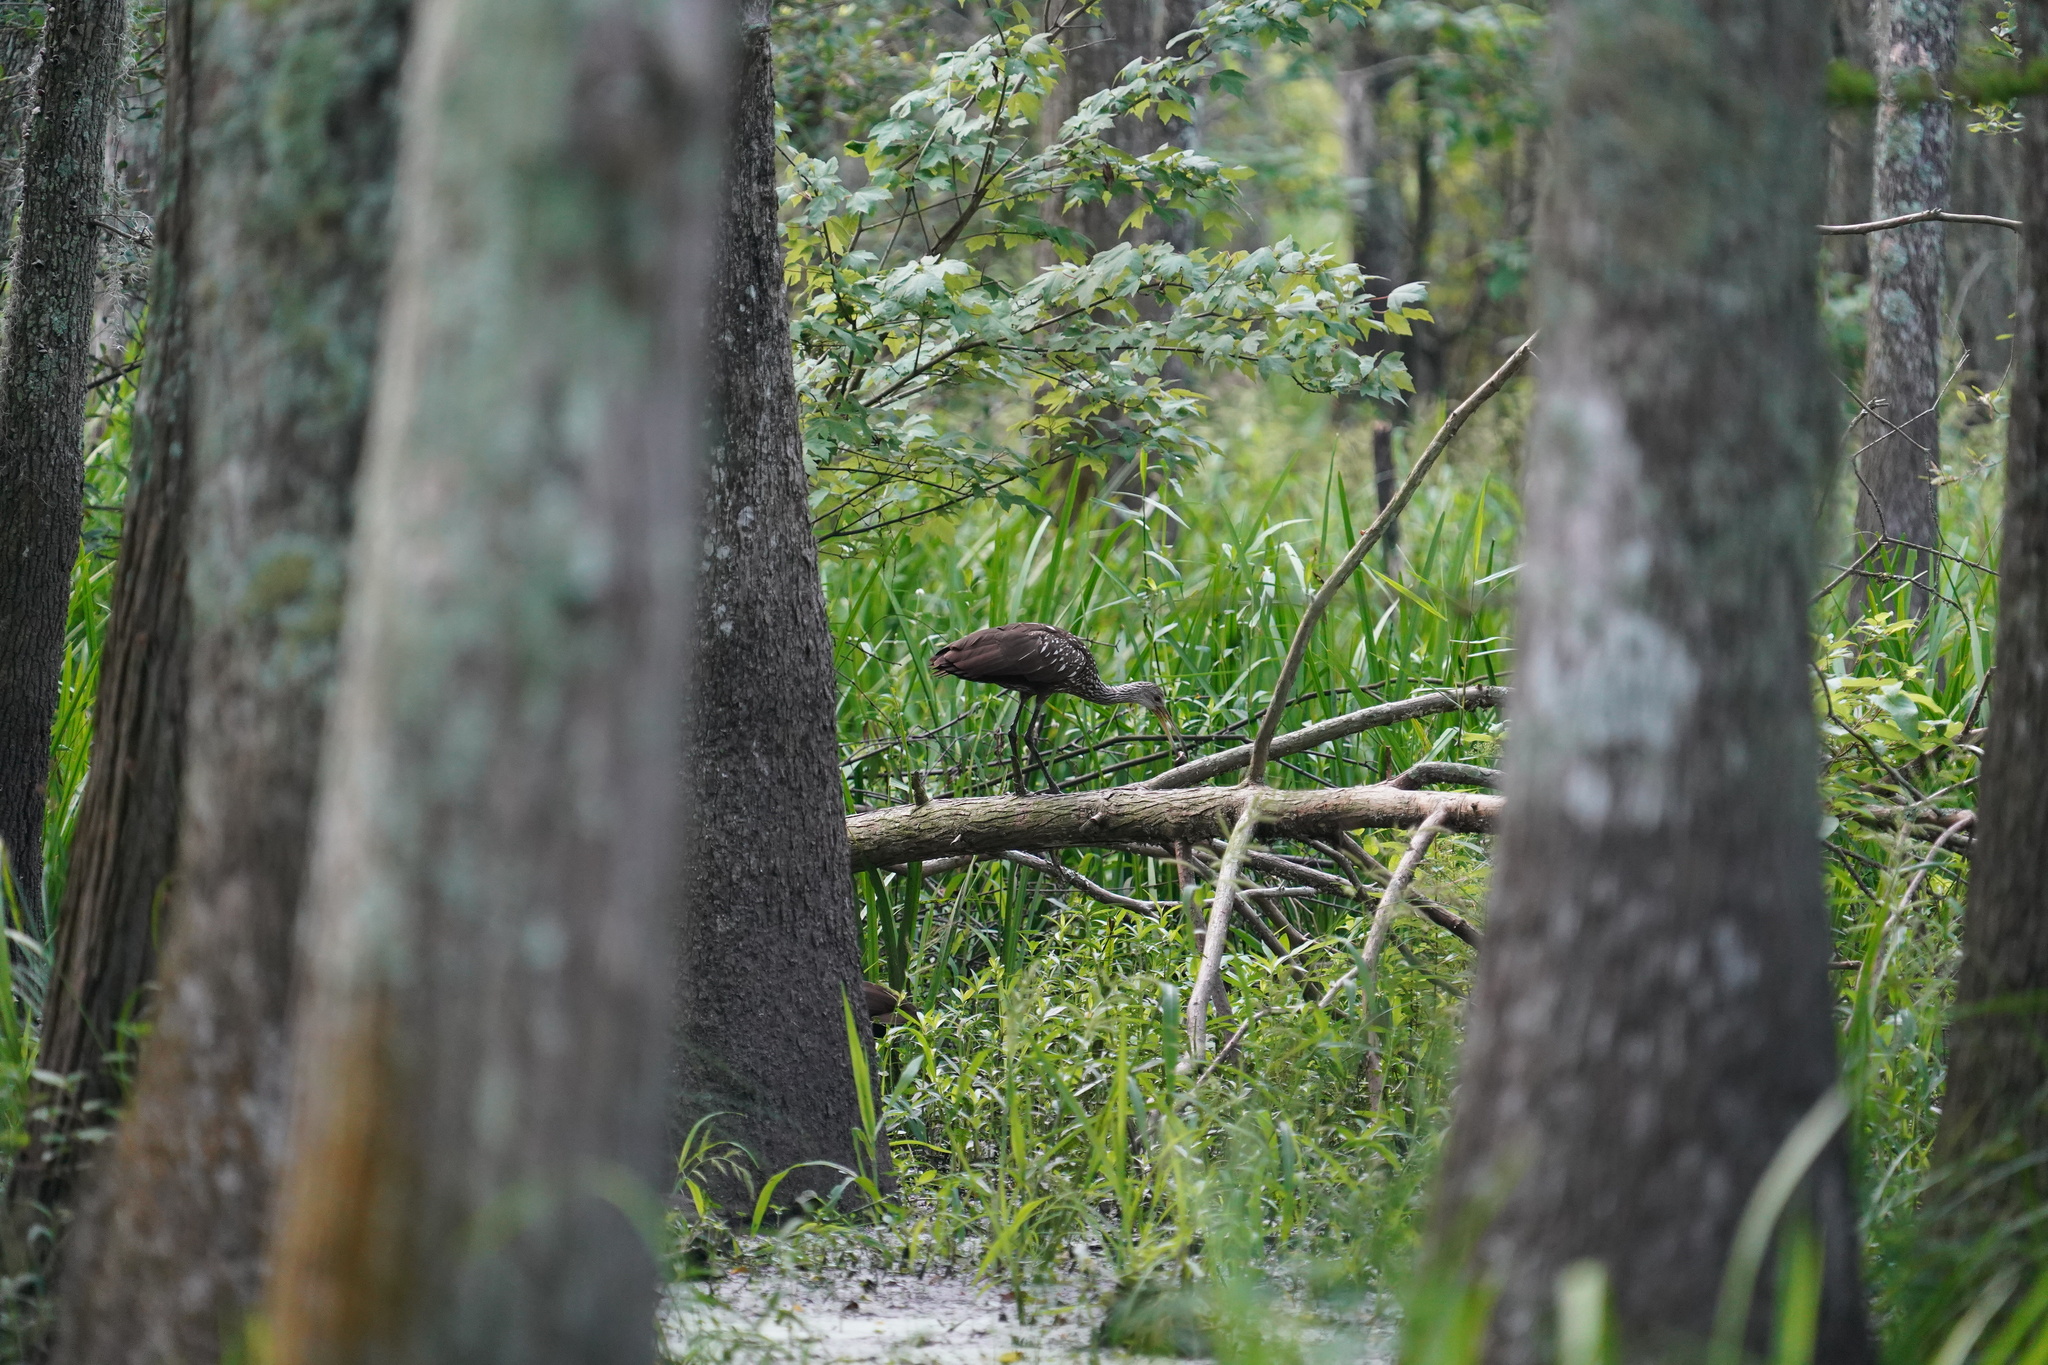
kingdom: Animalia
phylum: Chordata
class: Aves
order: Gruiformes
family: Aramidae
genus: Aramus
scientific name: Aramus guarauna
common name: Limpkin
